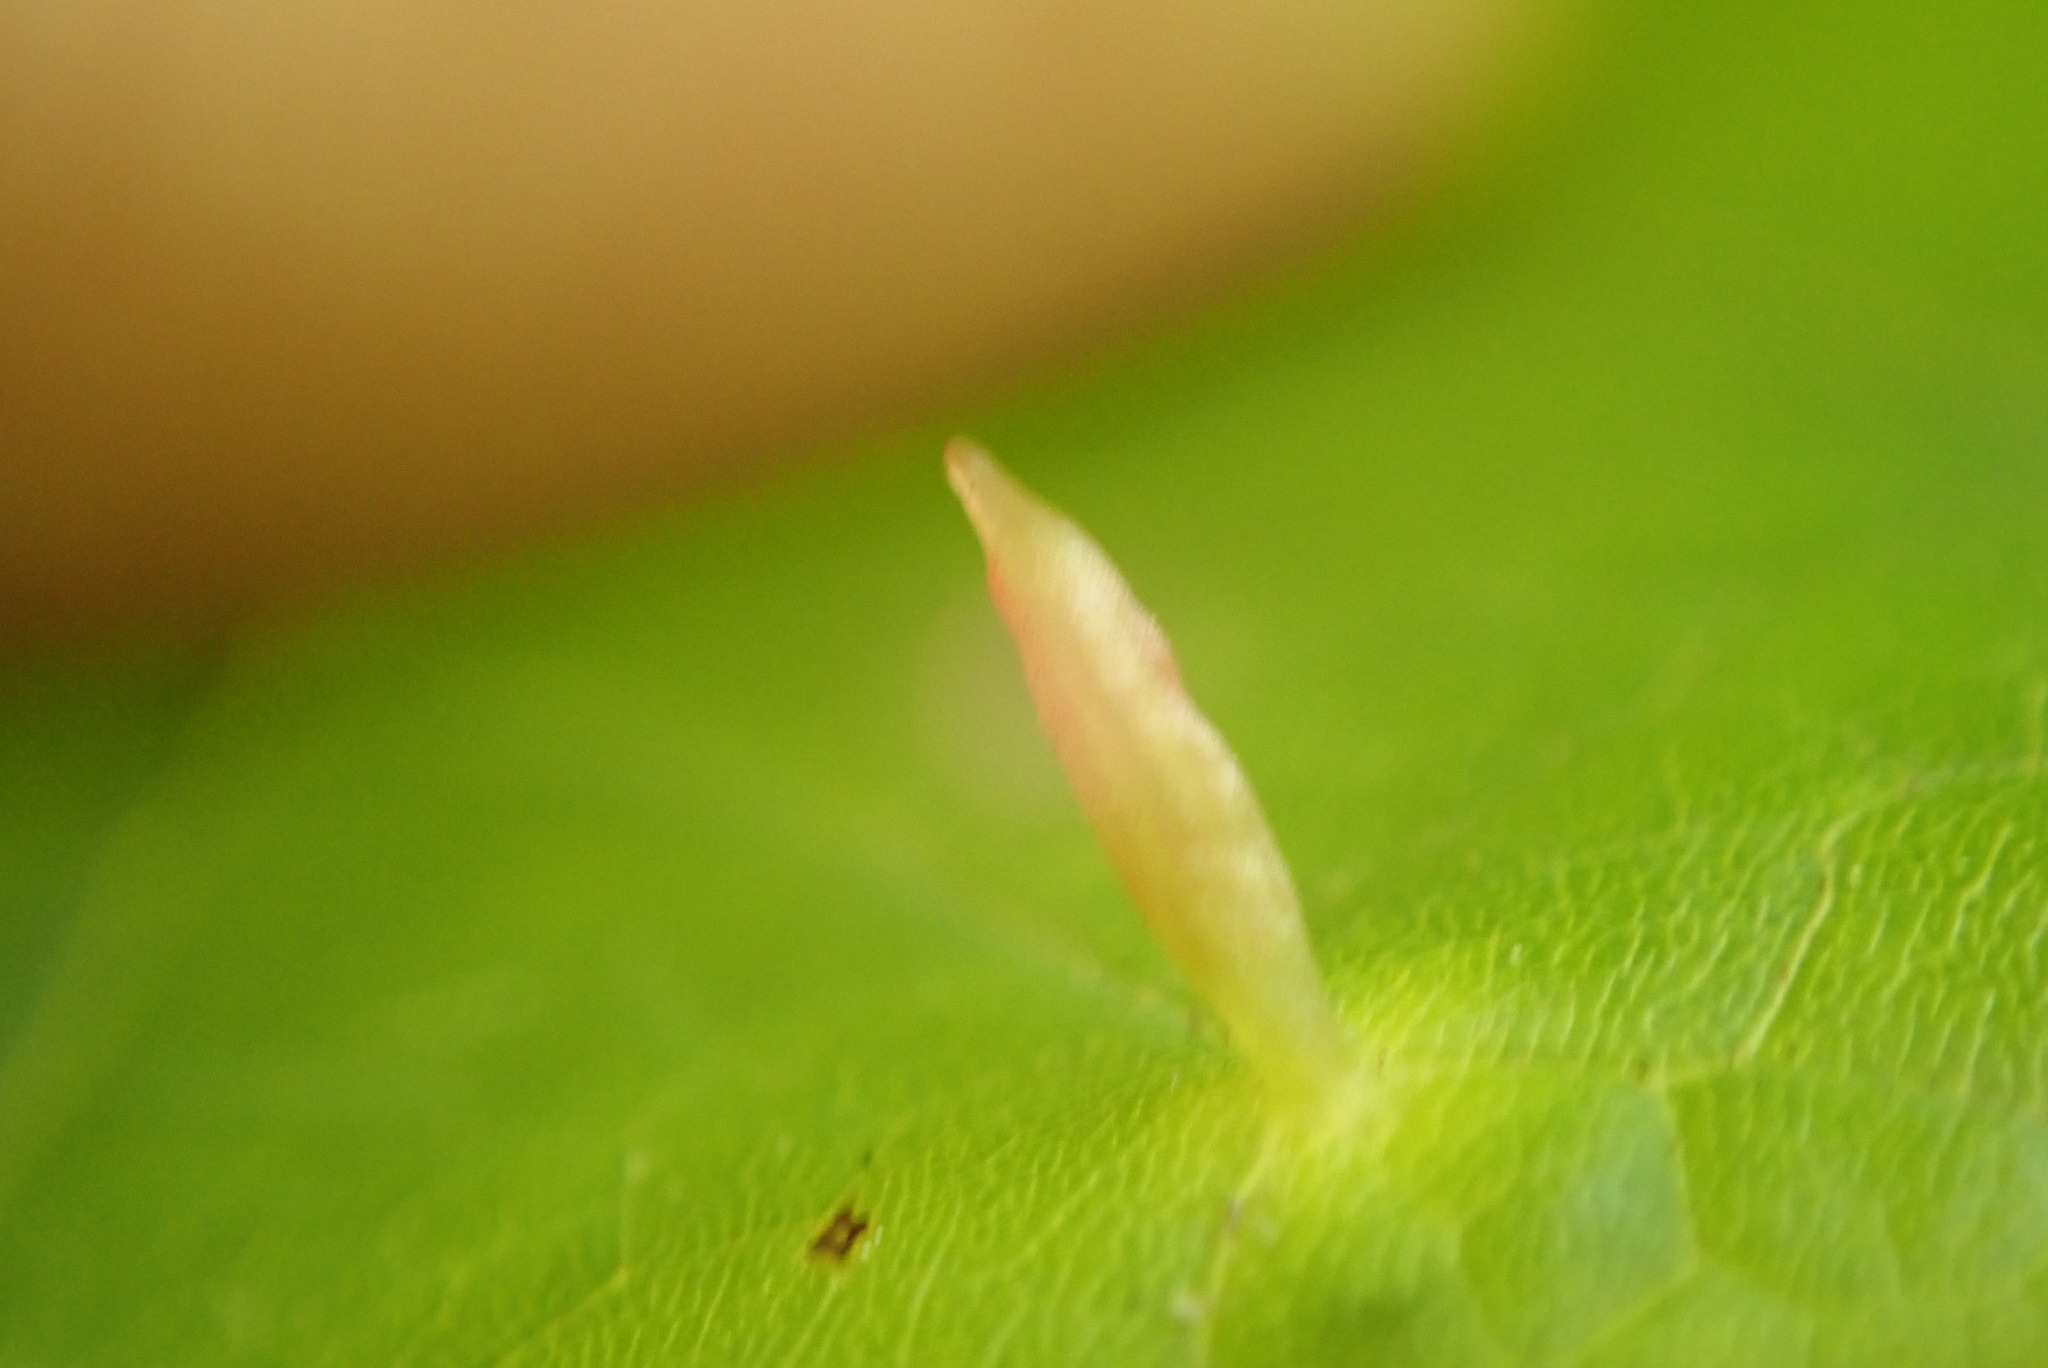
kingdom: Animalia
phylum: Arthropoda
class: Arachnida
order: Trombidiformes
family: Eriophyidae
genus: Vasates
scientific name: Vasates aceriscrumena
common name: Maple spindle gall mite
